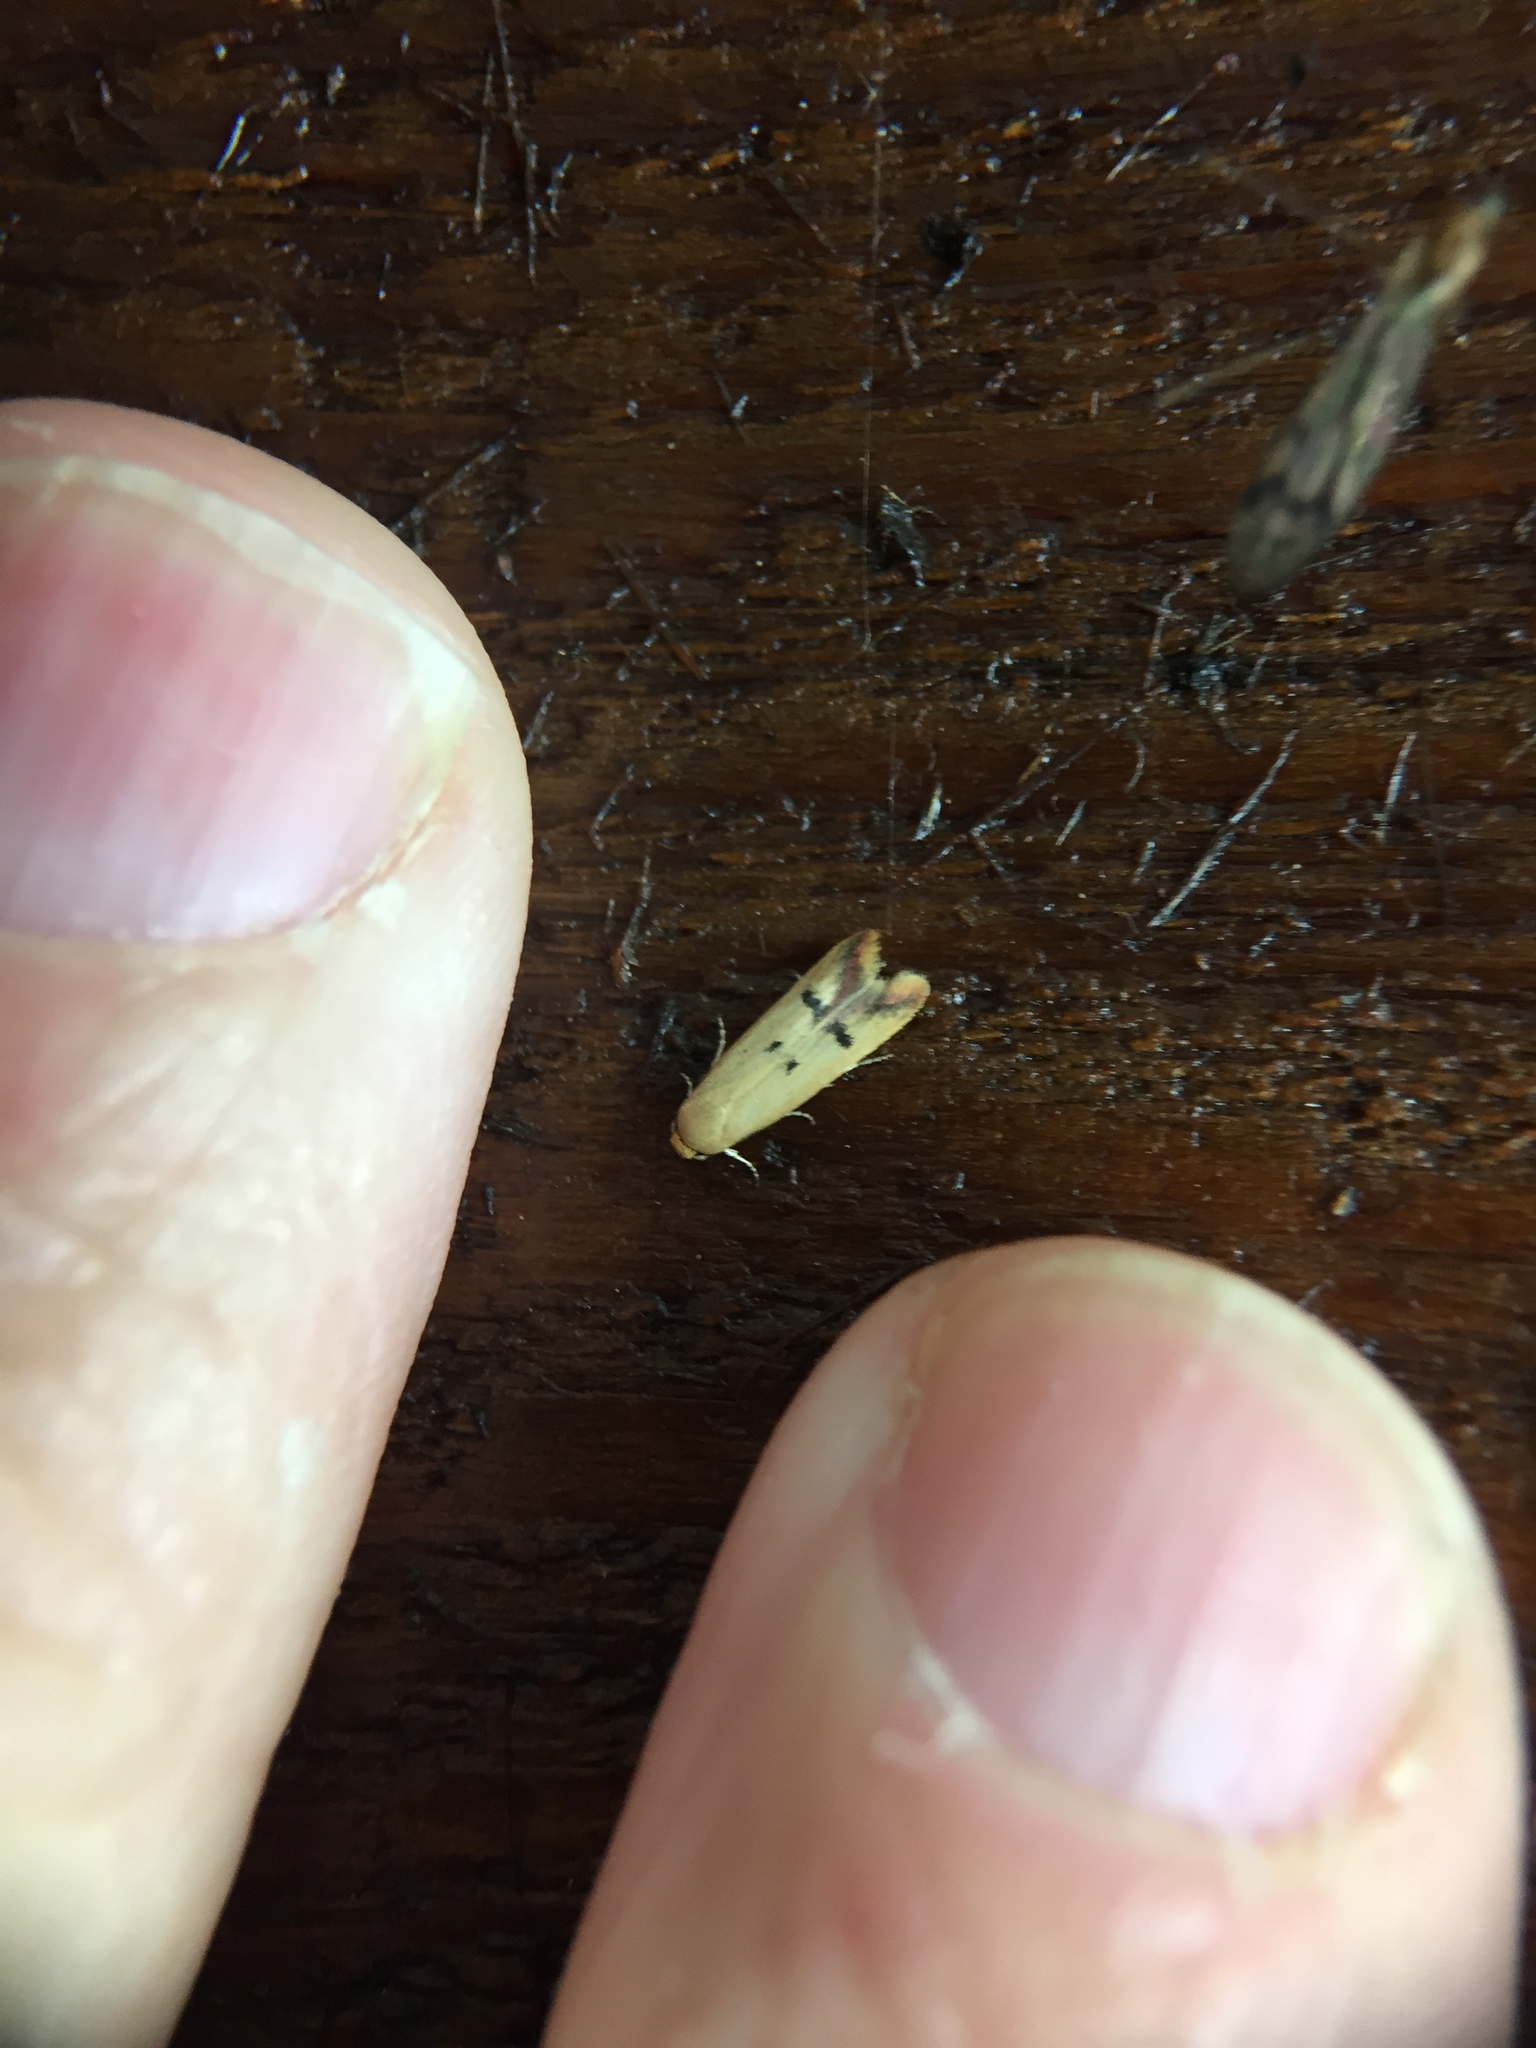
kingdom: Animalia
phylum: Arthropoda
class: Insecta
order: Lepidoptera
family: Oecophoridae
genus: Tachystola
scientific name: Tachystola hemisema
